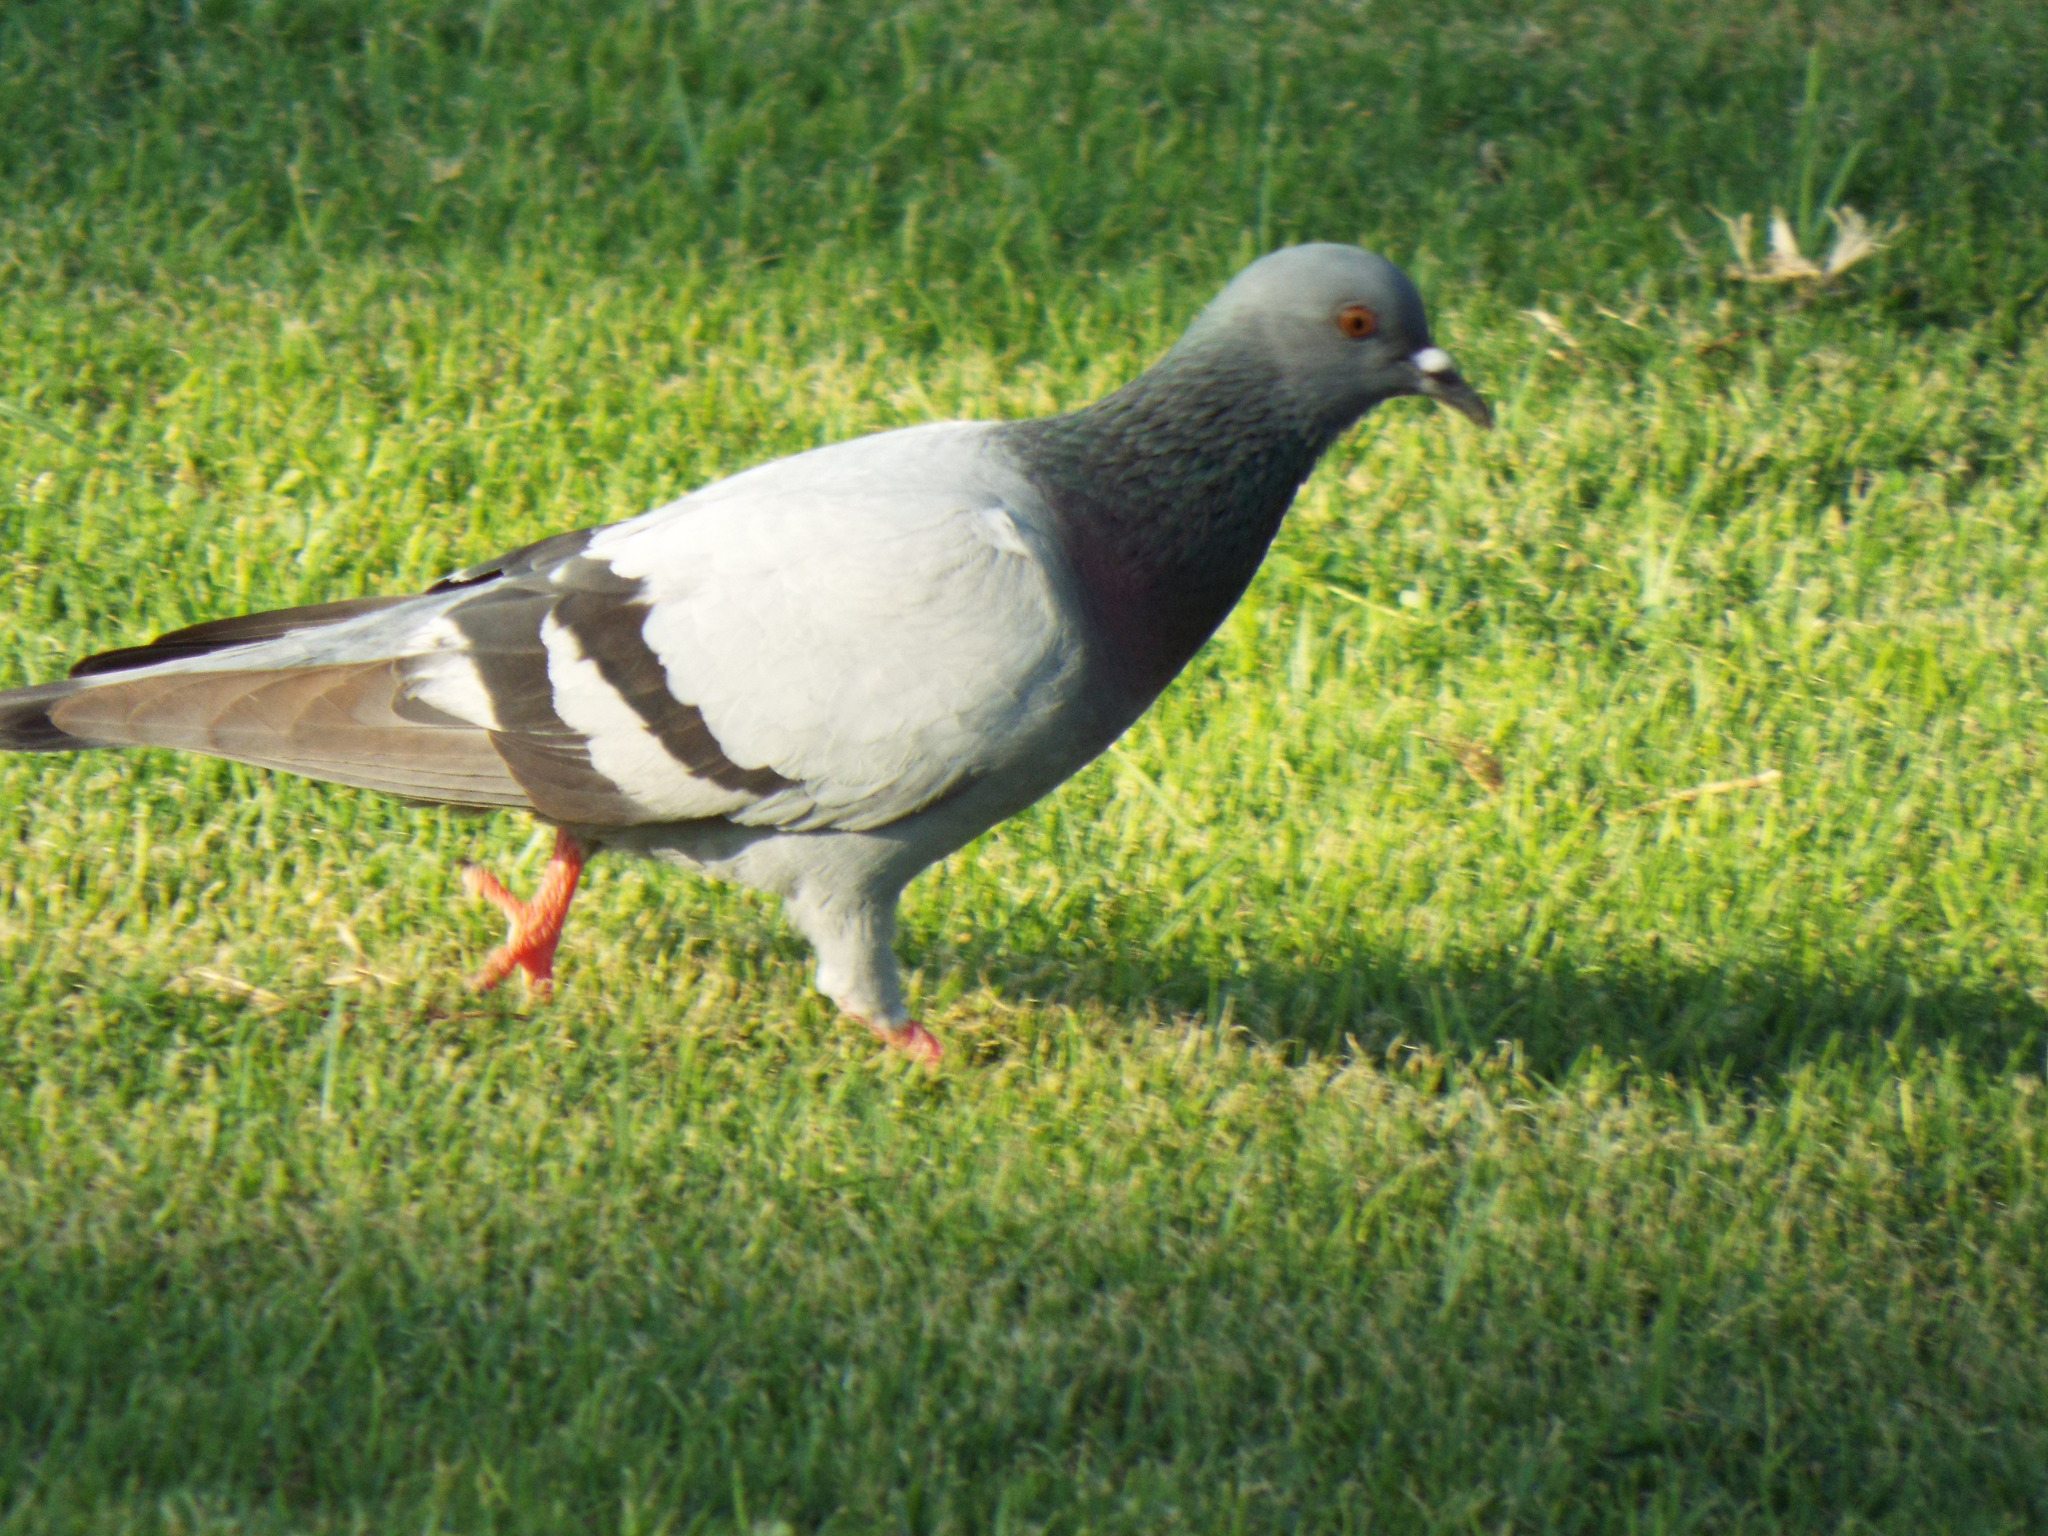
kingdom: Animalia
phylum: Chordata
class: Aves
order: Columbiformes
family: Columbidae
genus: Columba
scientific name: Columba livia
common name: Rock pigeon
